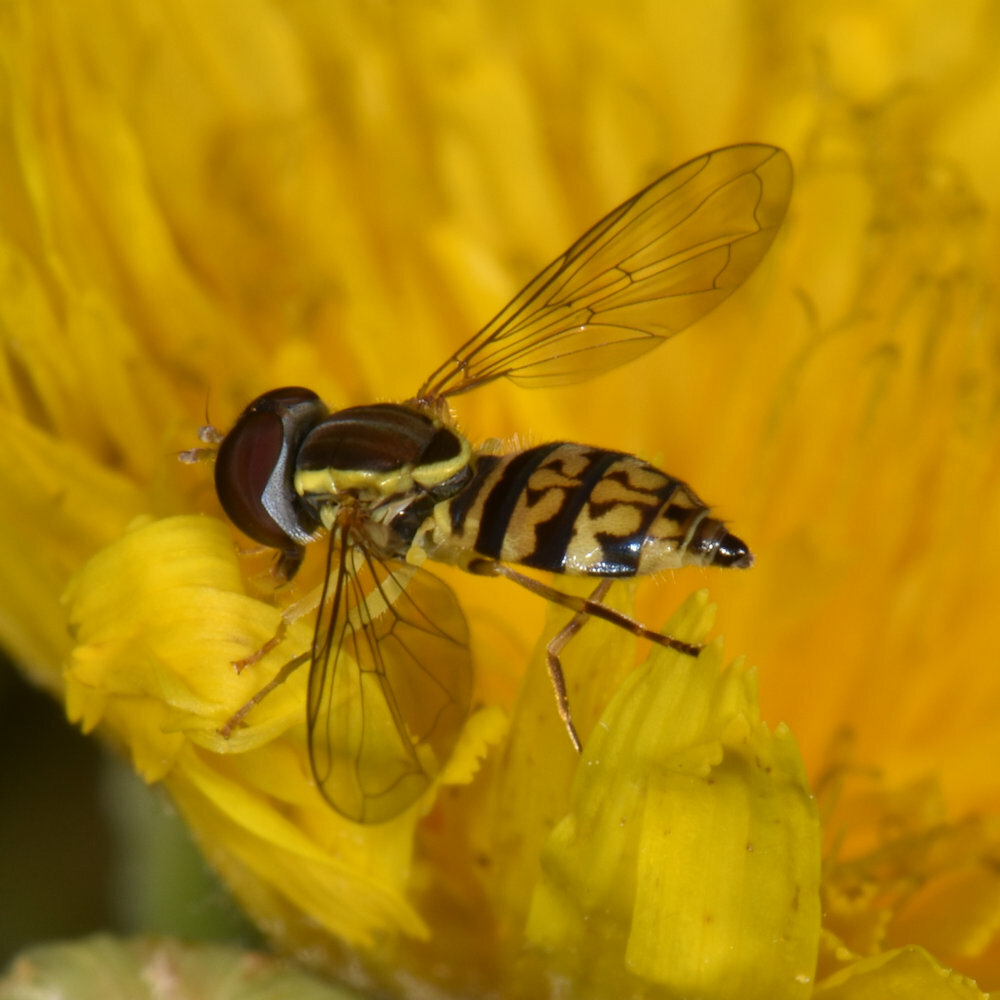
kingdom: Animalia
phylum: Arthropoda
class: Insecta
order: Diptera
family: Syrphidae
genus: Toxomerus
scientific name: Toxomerus geminatus
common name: Eastern calligrapher
